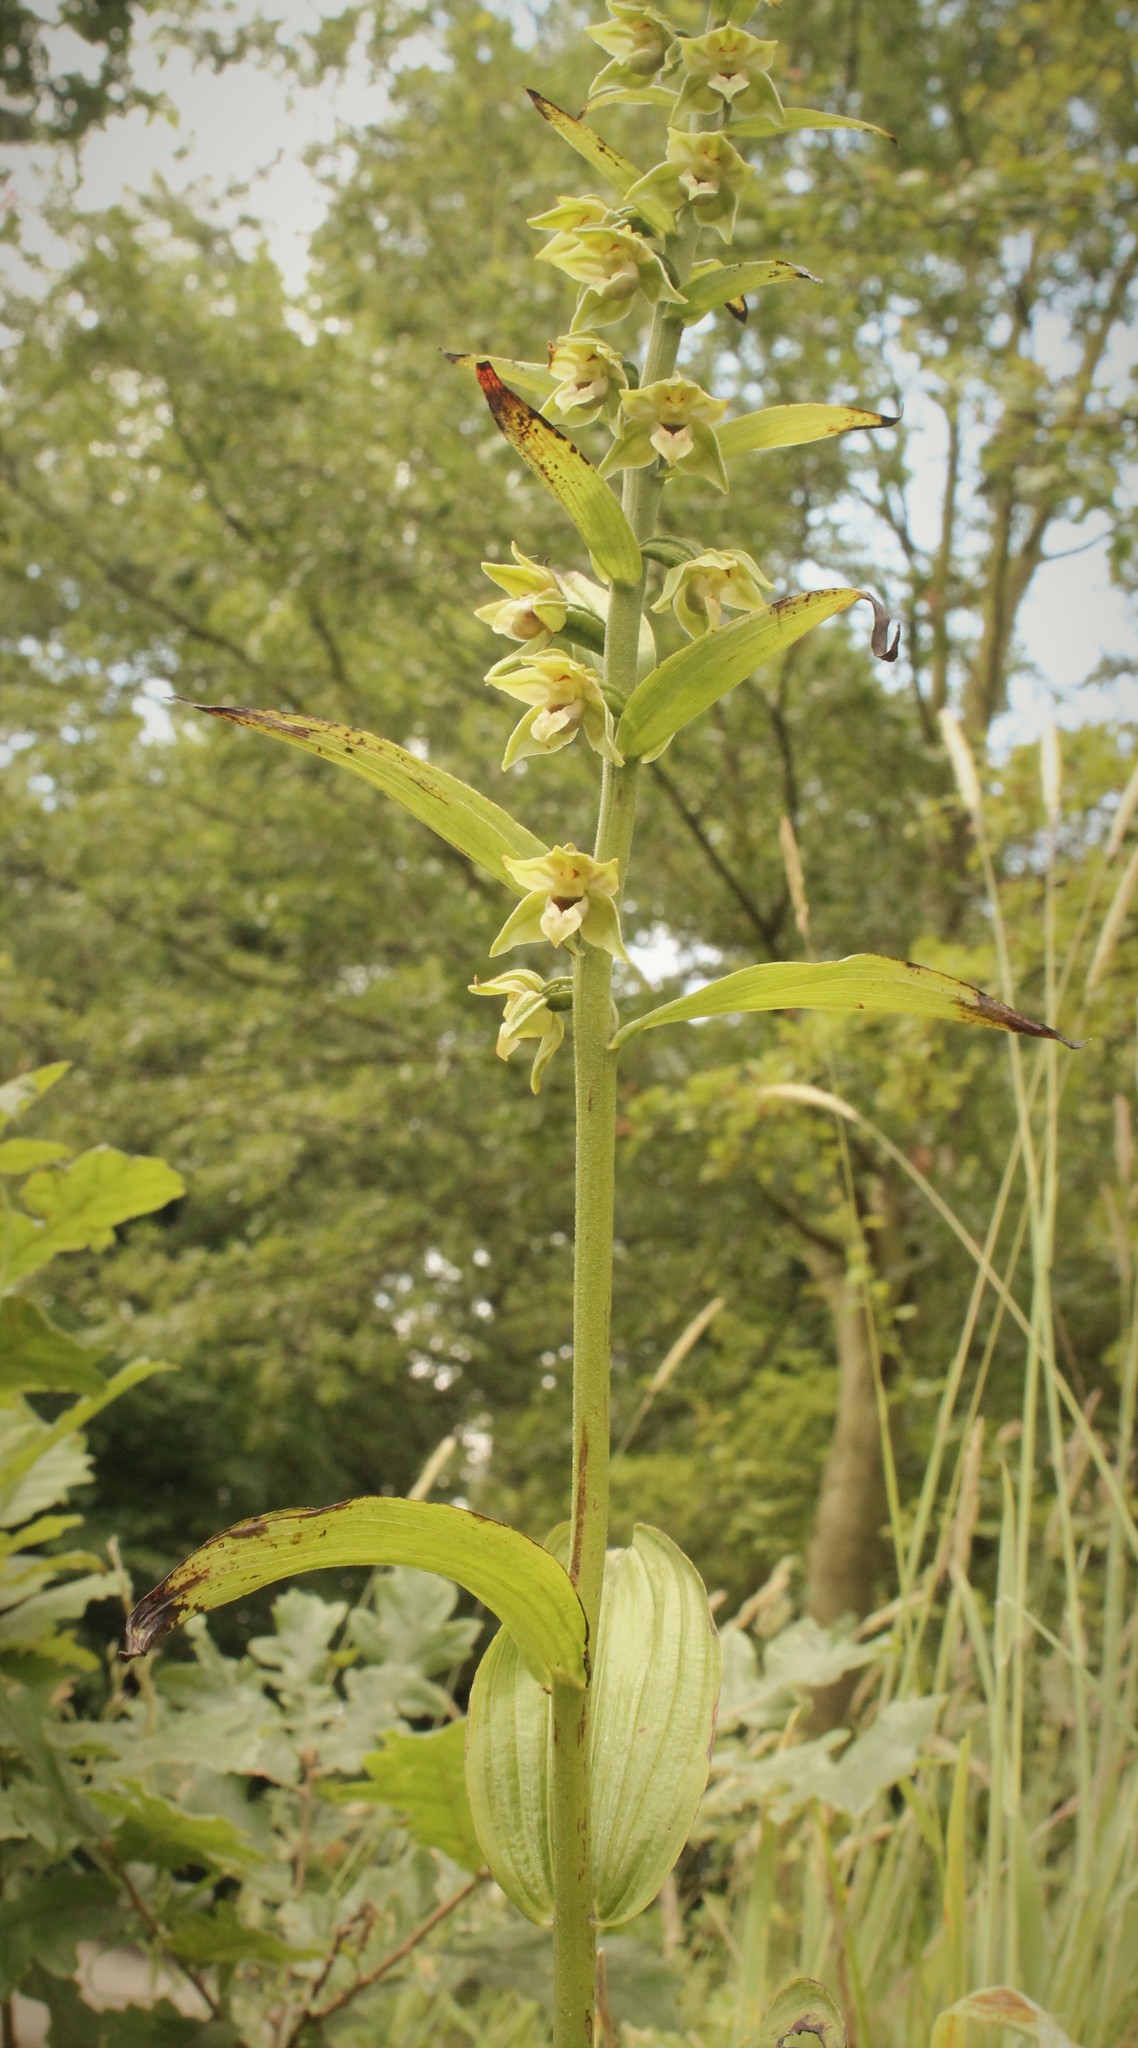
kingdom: Plantae
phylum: Tracheophyta
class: Liliopsida
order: Asparagales
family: Orchidaceae
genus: Epipactis
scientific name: Epipactis helleborine
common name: Broad-leaved helleborine
